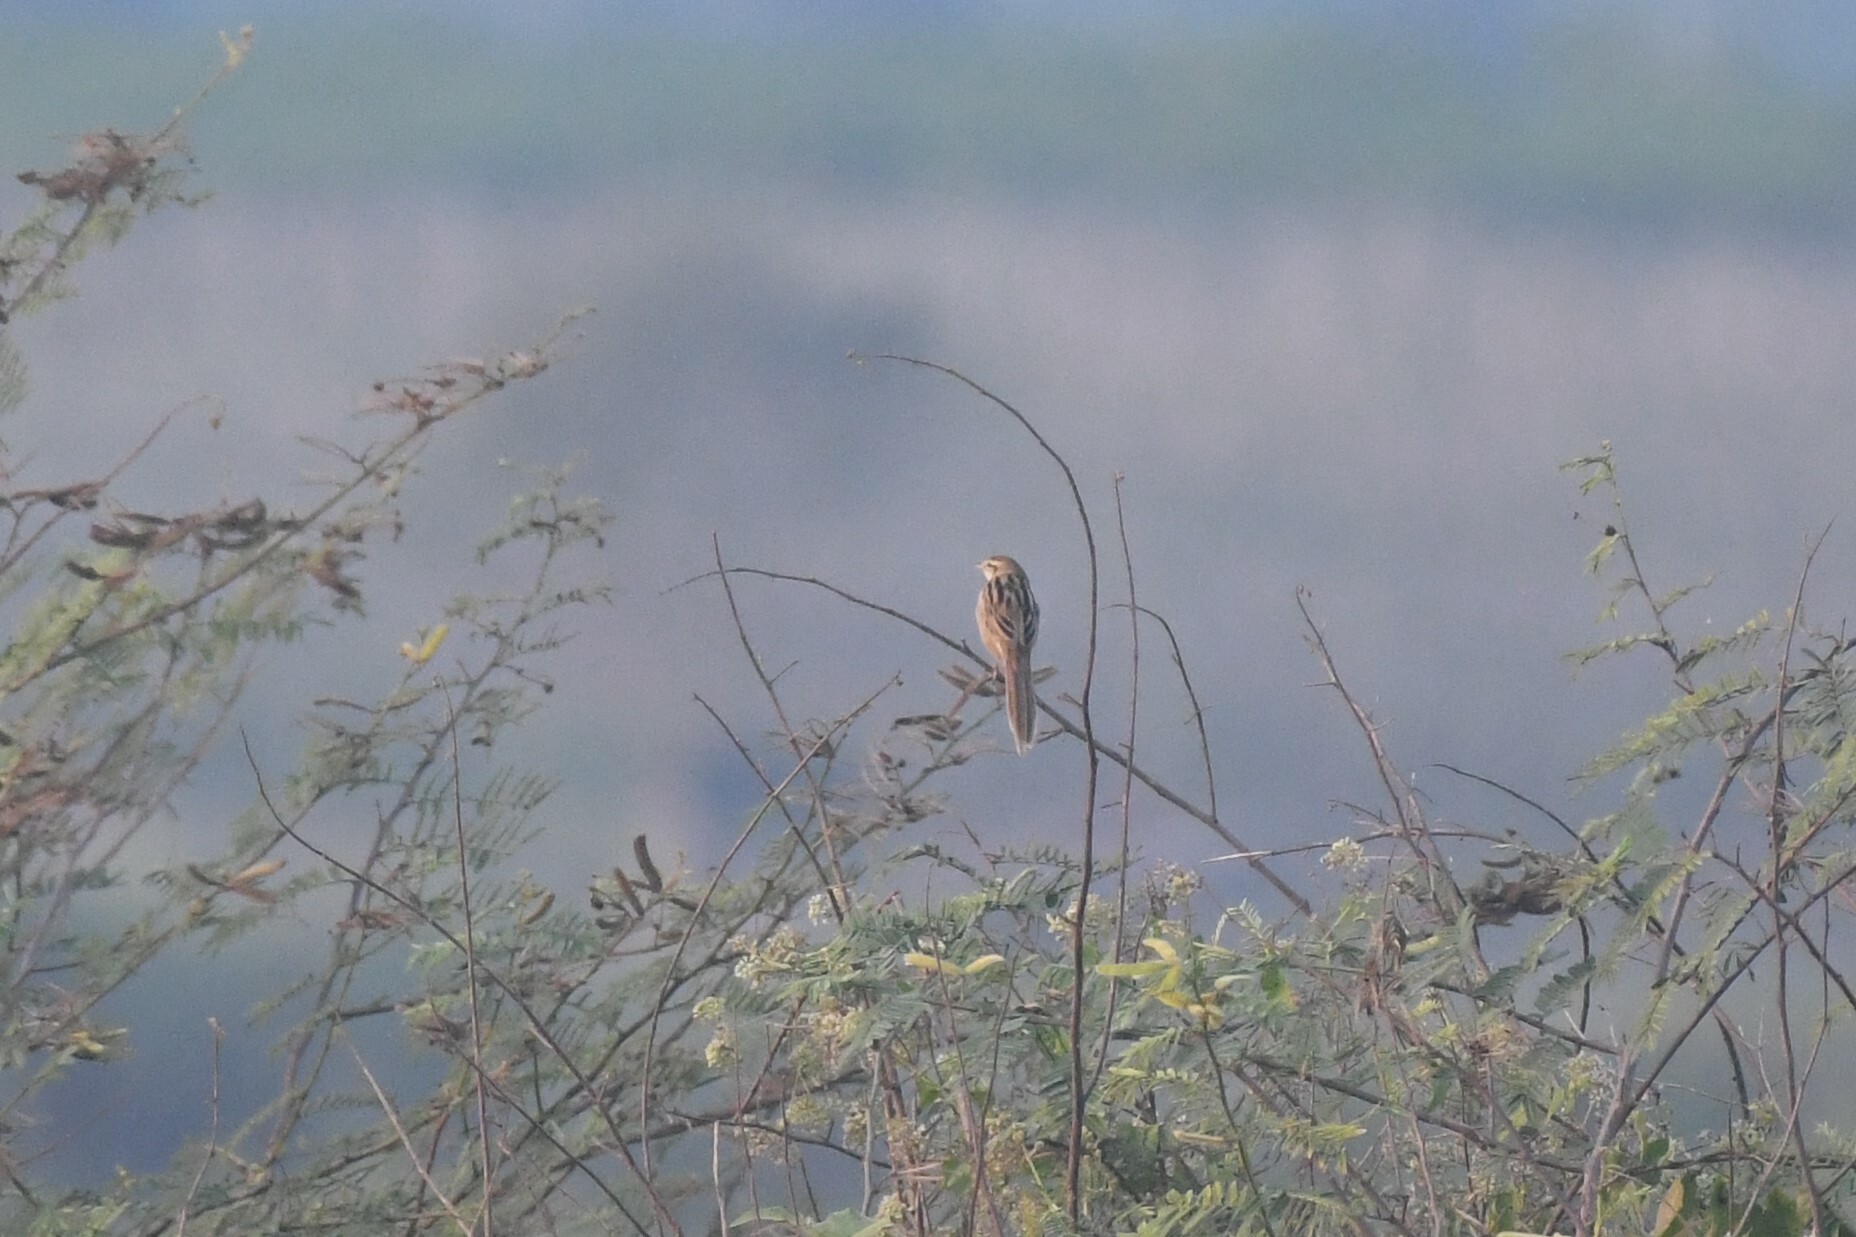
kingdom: Animalia
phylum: Chordata
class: Aves
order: Passeriformes
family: Locustellidae
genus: Megalurus
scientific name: Megalurus palustris
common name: Striated grassbird
